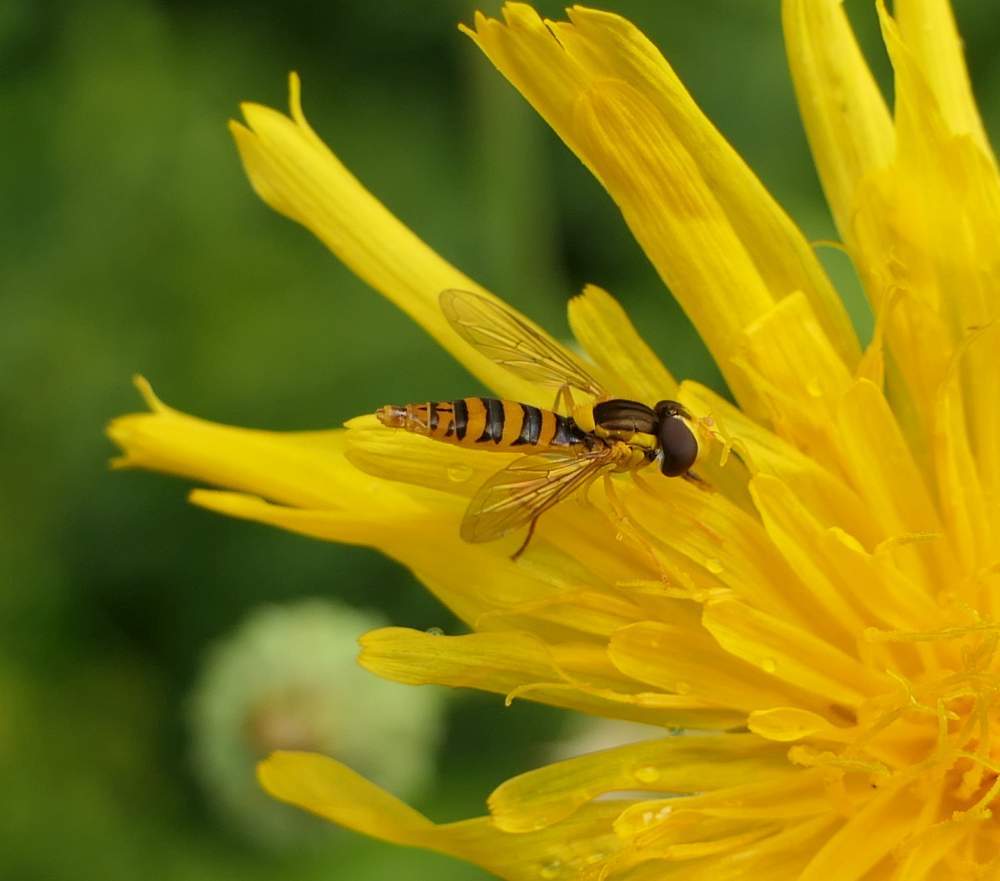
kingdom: Animalia
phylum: Arthropoda
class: Insecta
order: Diptera
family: Syrphidae
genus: Sphaerophoria
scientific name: Sphaerophoria
